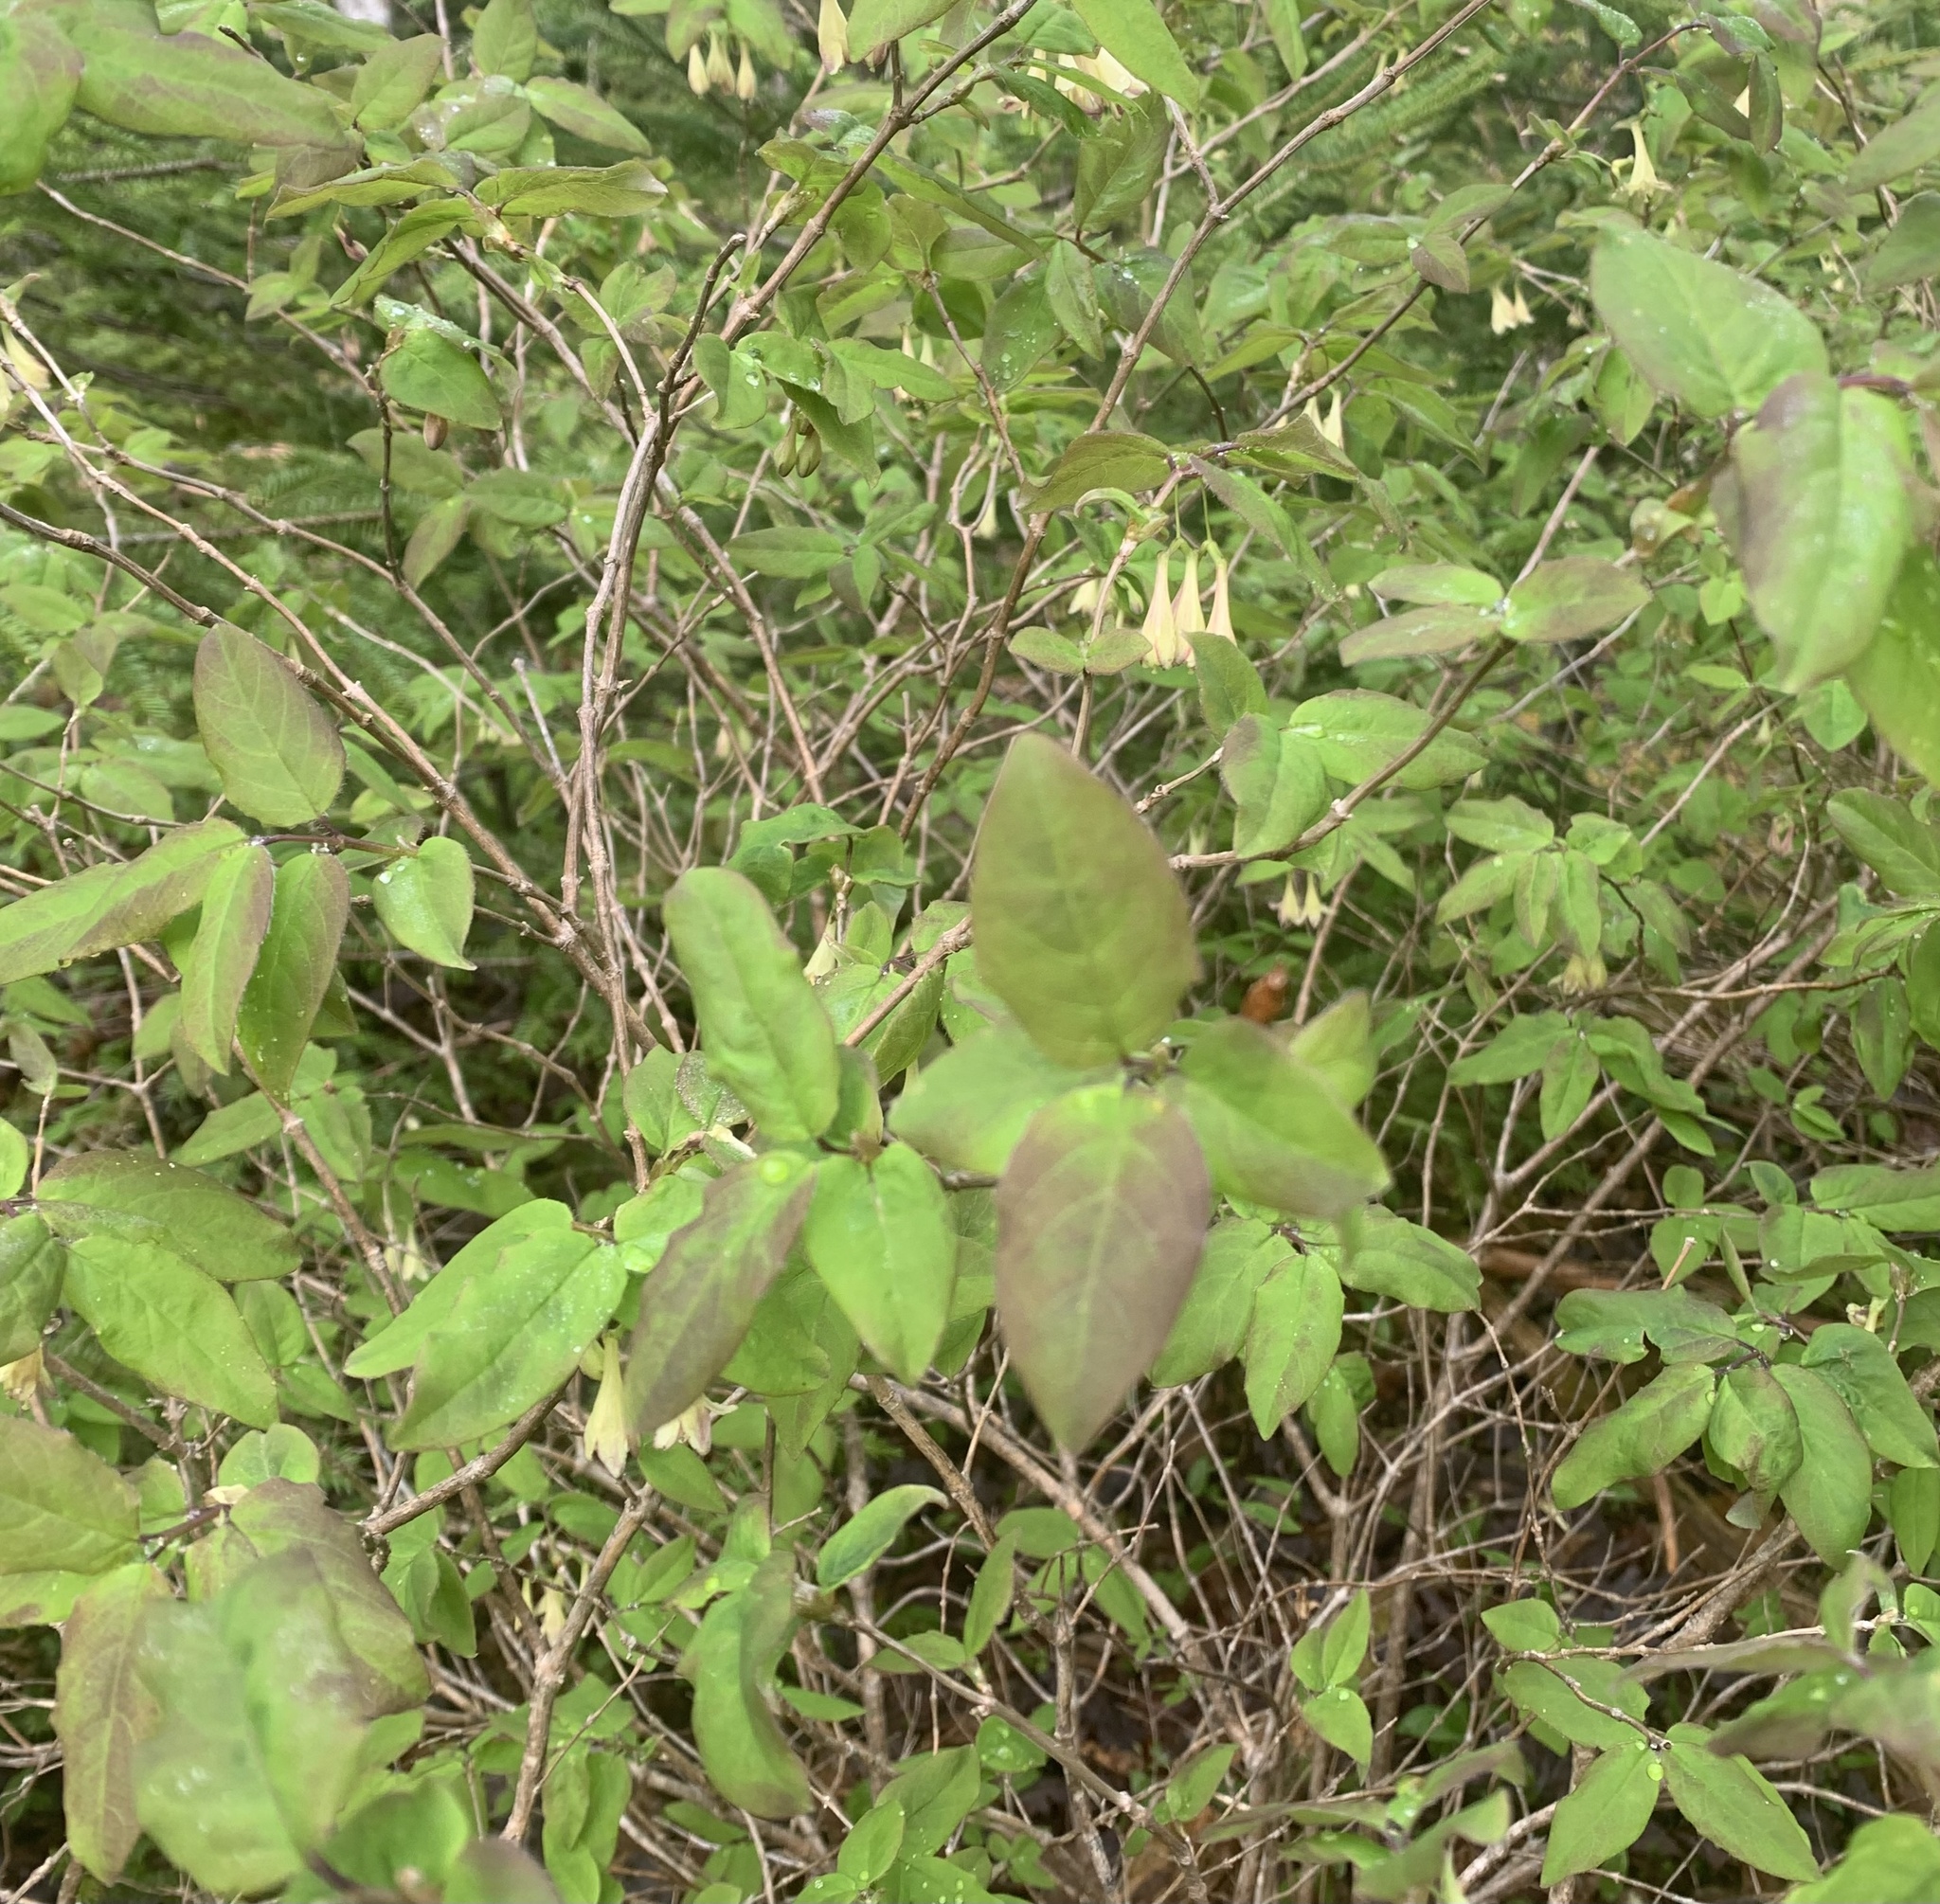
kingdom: Plantae
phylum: Tracheophyta
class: Magnoliopsida
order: Dipsacales
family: Caprifoliaceae
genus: Lonicera
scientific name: Lonicera canadensis
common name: American fly-honeysuckle
